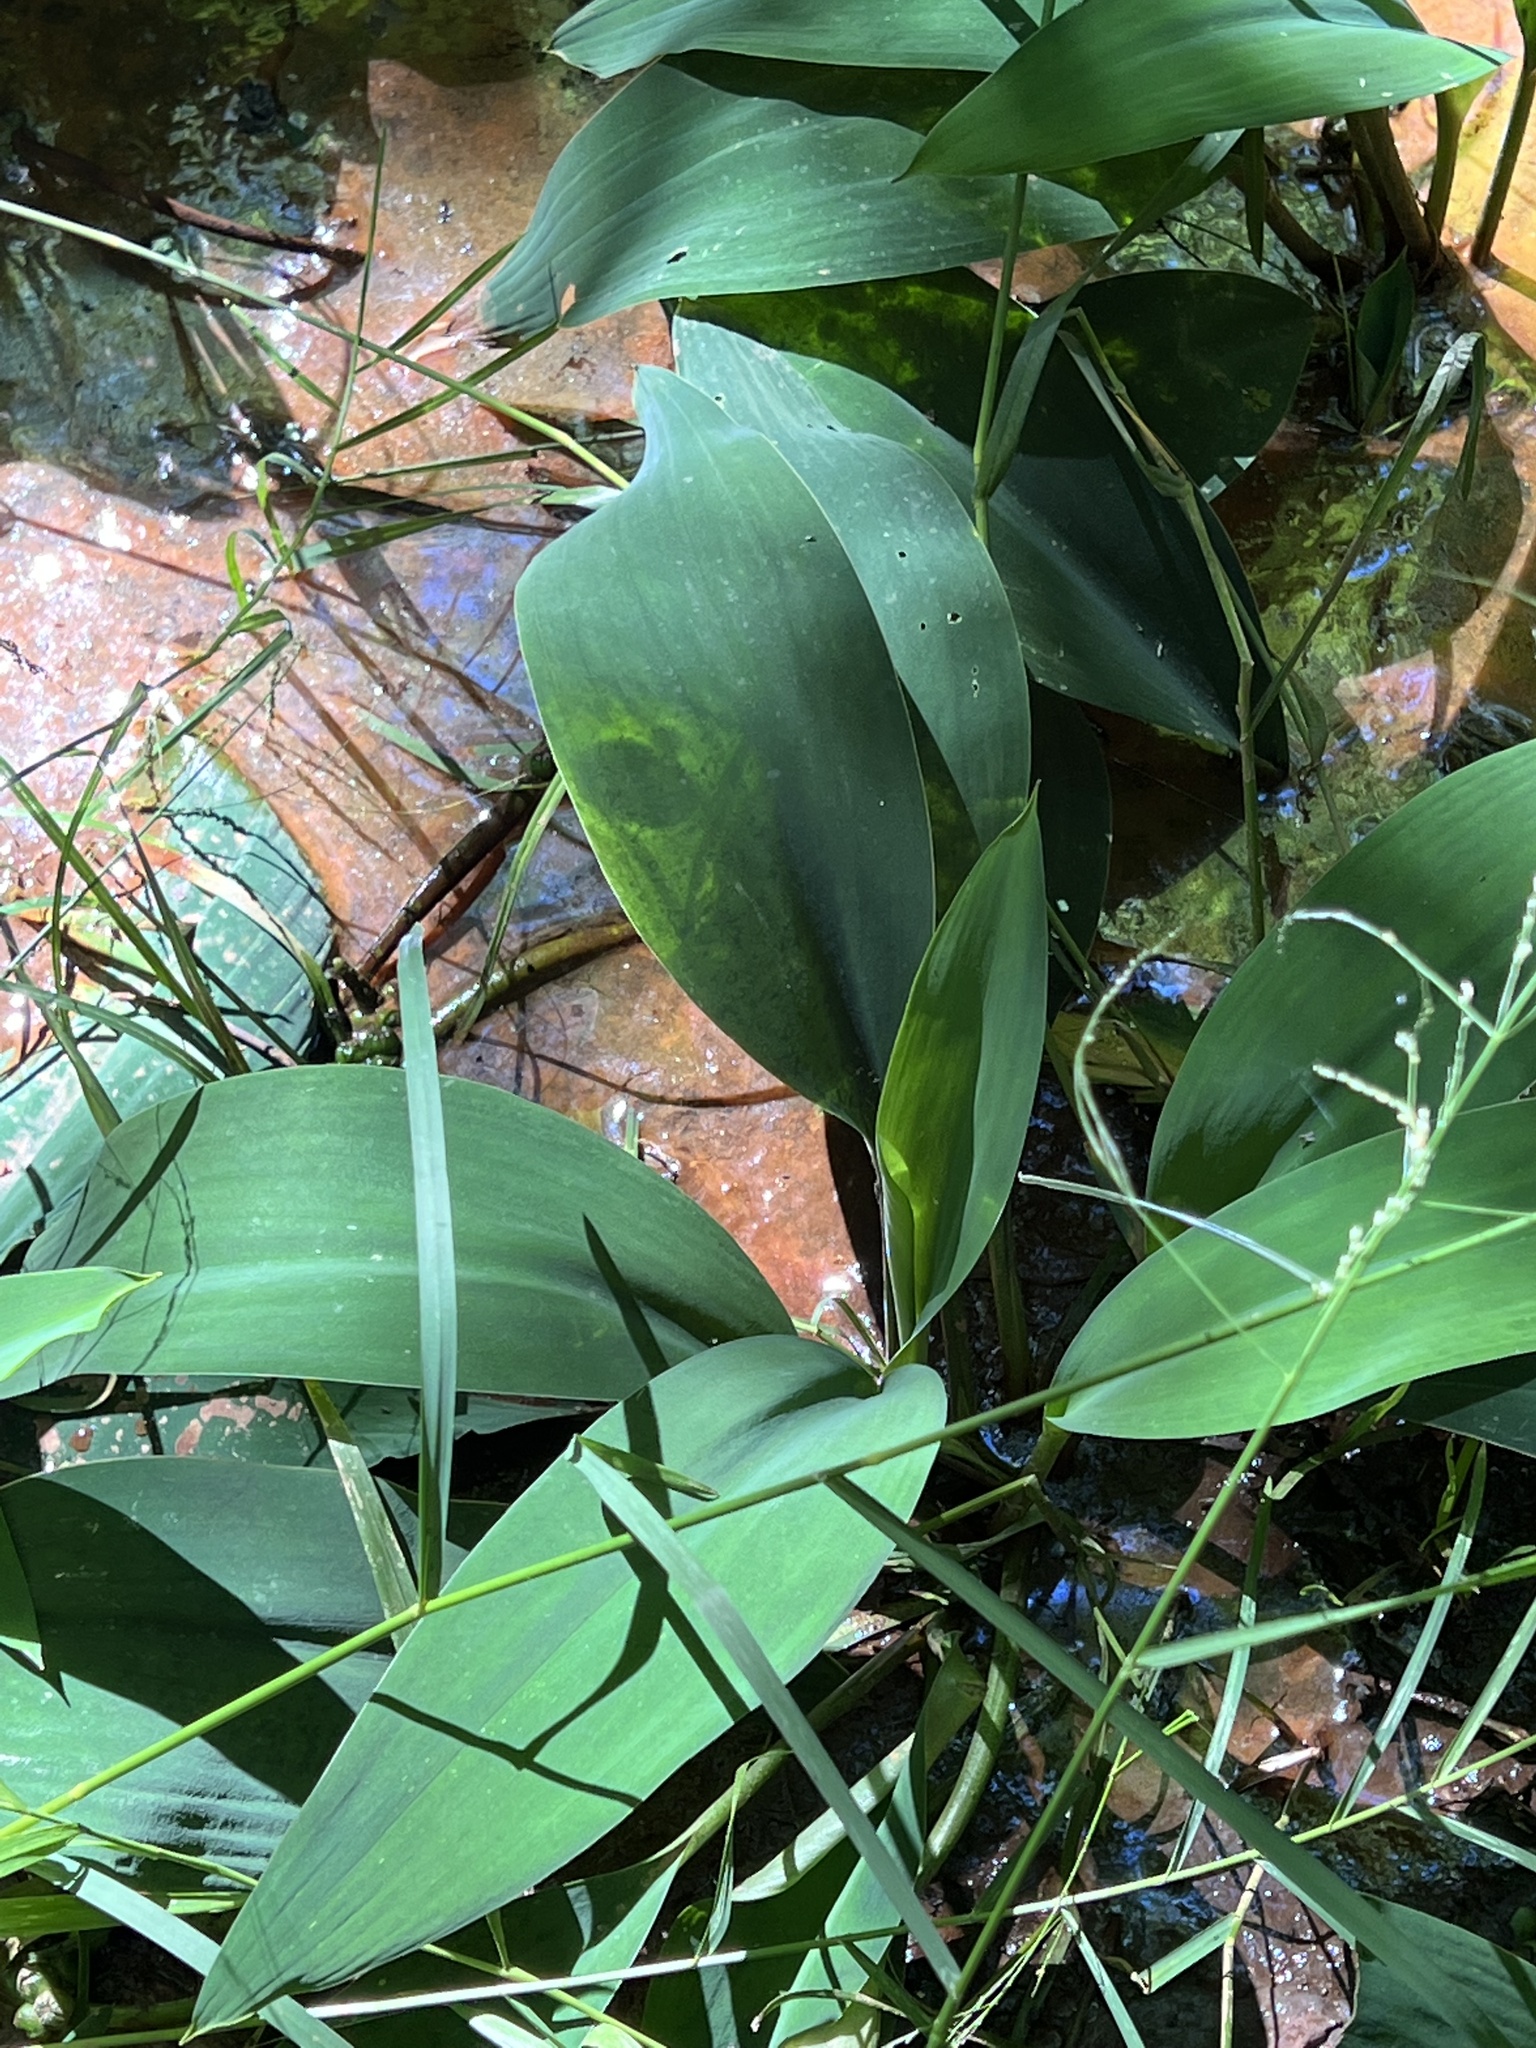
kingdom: Plantae
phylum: Tracheophyta
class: Liliopsida
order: Alismatales
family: Araceae
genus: Orontium
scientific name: Orontium aquaticum
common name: Golden-club
